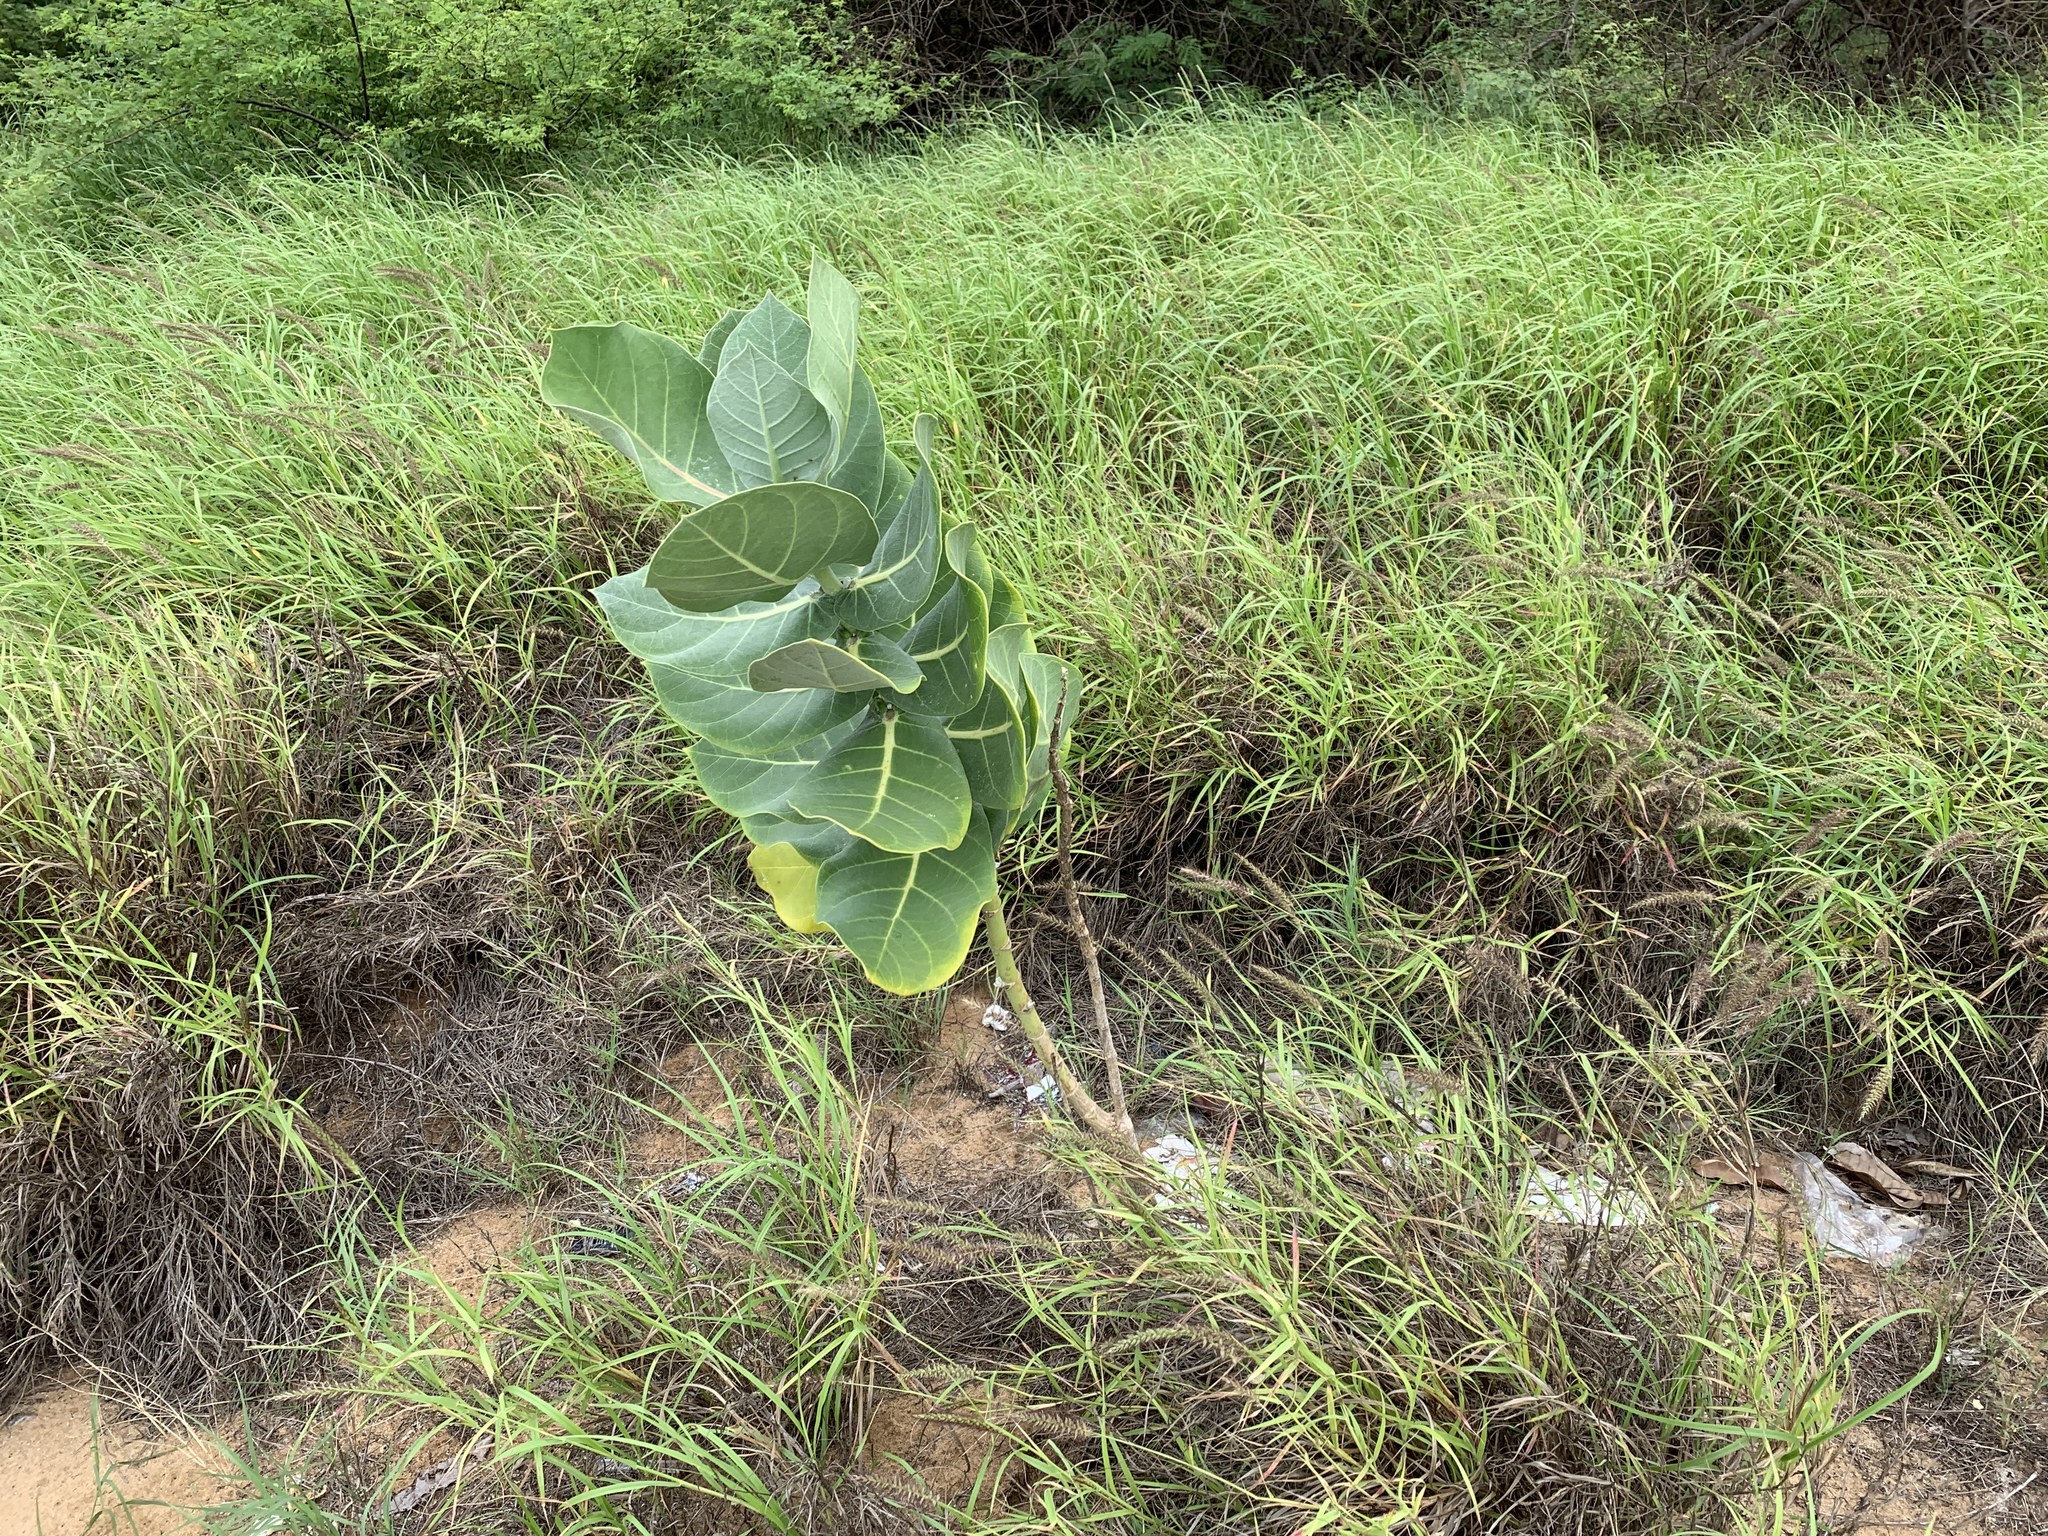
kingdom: Plantae
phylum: Tracheophyta
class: Magnoliopsida
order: Gentianales
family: Apocynaceae
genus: Calotropis
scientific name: Calotropis procera
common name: Roostertree
